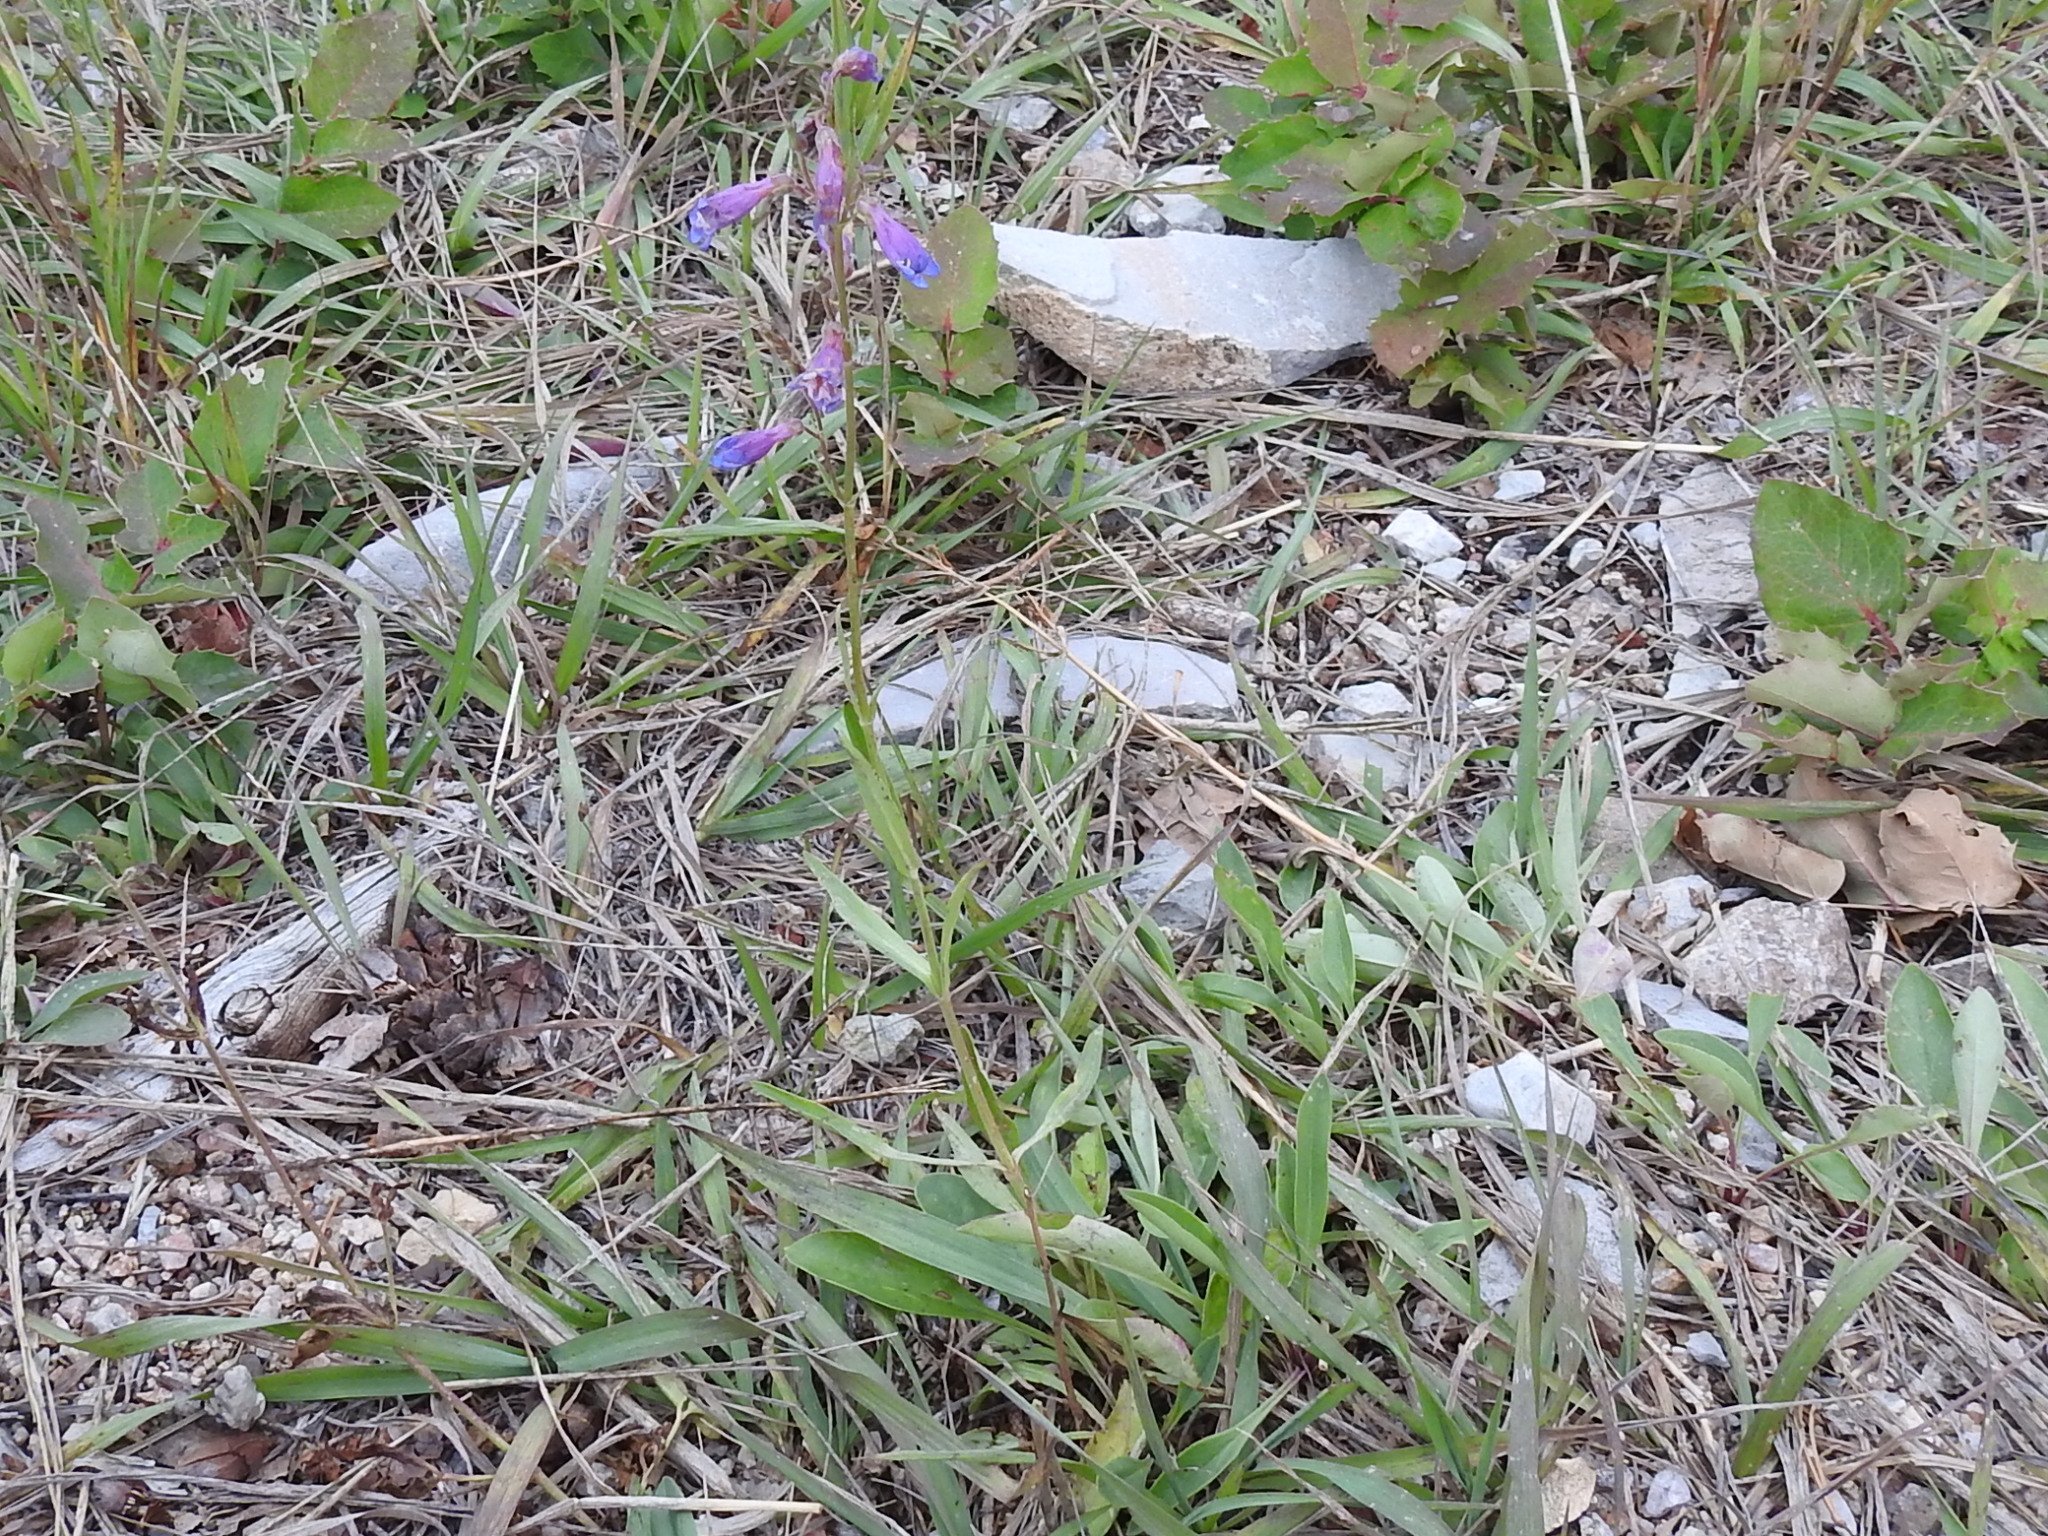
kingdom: Plantae
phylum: Tracheophyta
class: Magnoliopsida
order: Lamiales
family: Plantaginaceae
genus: Penstemon
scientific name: Penstemon oliganthus
